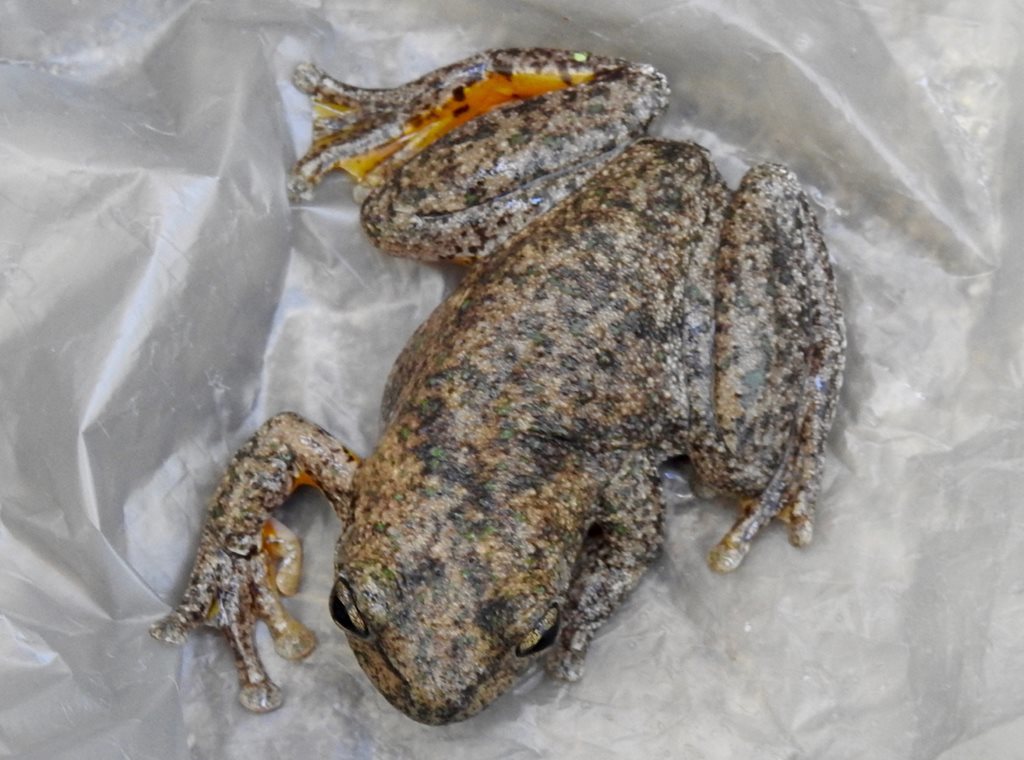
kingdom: Animalia
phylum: Chordata
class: Amphibia
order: Anura
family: Pelodryadidae
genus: Litoria
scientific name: Litoria peronii
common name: Emerald spotted treefrog
